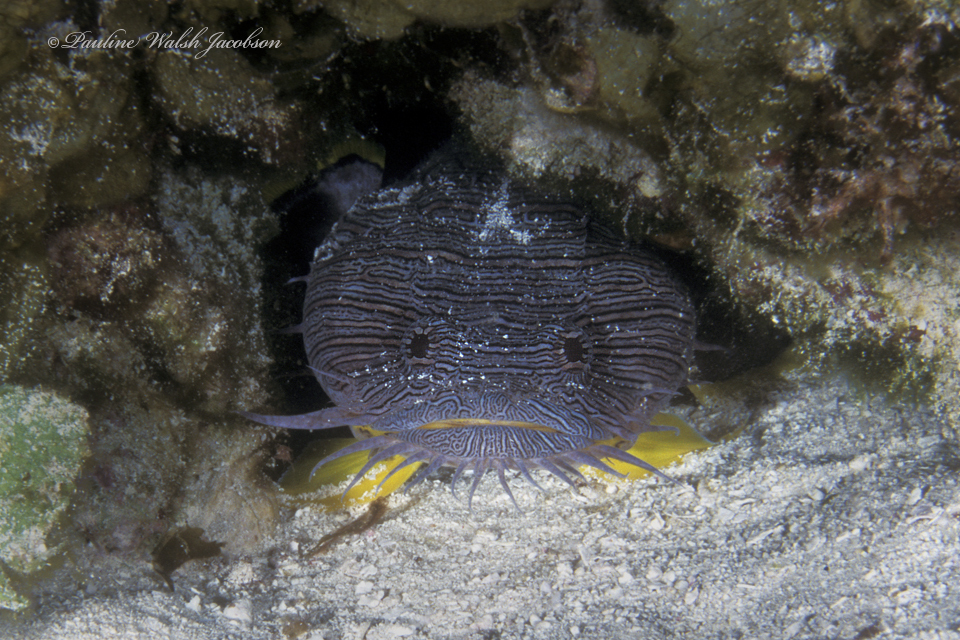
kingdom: Animalia
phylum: Chordata
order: Batrachoidiformes
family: Batrachoididae
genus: Sanopus
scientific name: Sanopus splendidus
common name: Splendid toadfish
